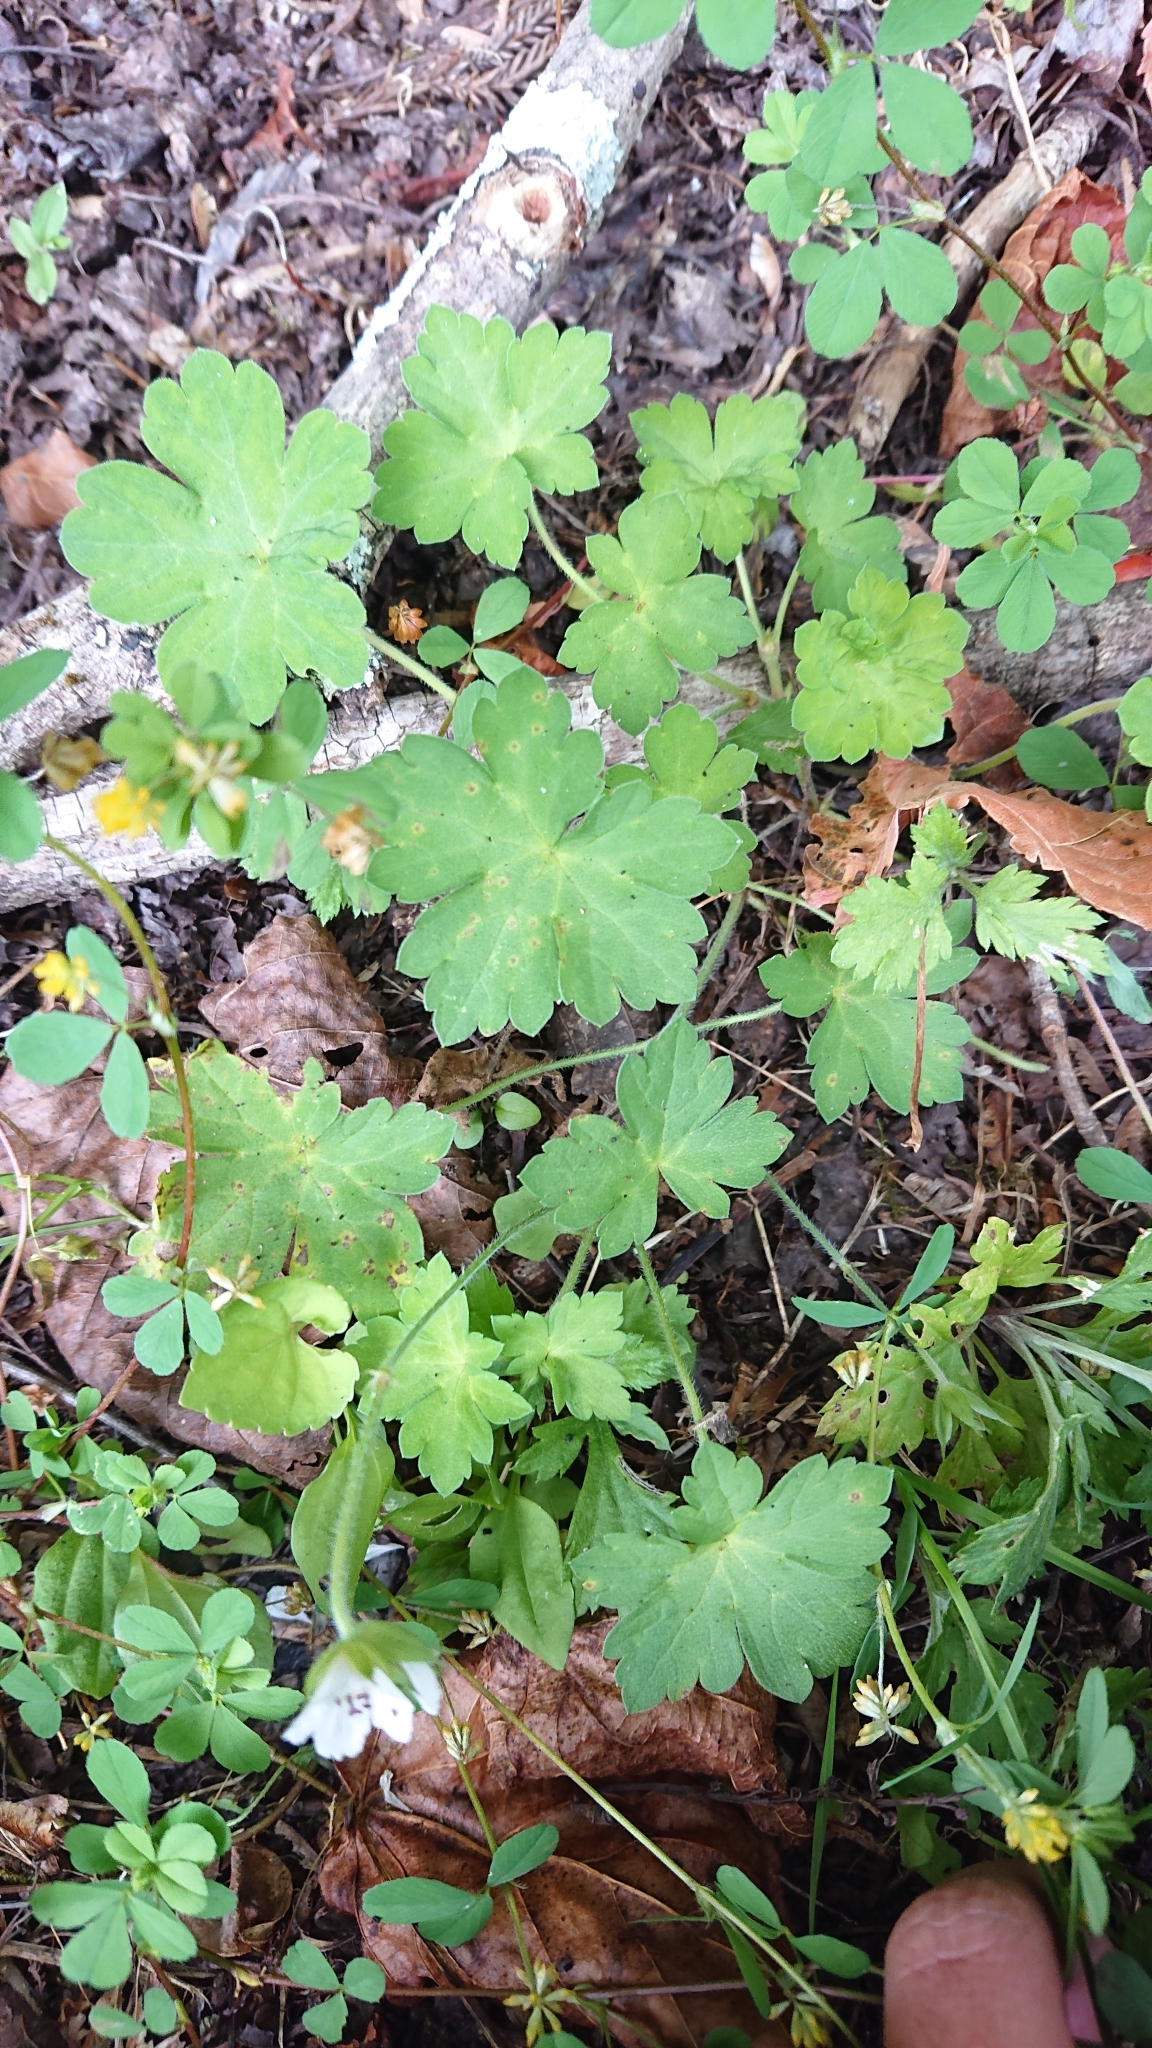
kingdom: Plantae
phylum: Tracheophyta
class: Magnoliopsida
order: Geraniales
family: Geraniaceae
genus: Geranium
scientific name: Geranium suzukii
